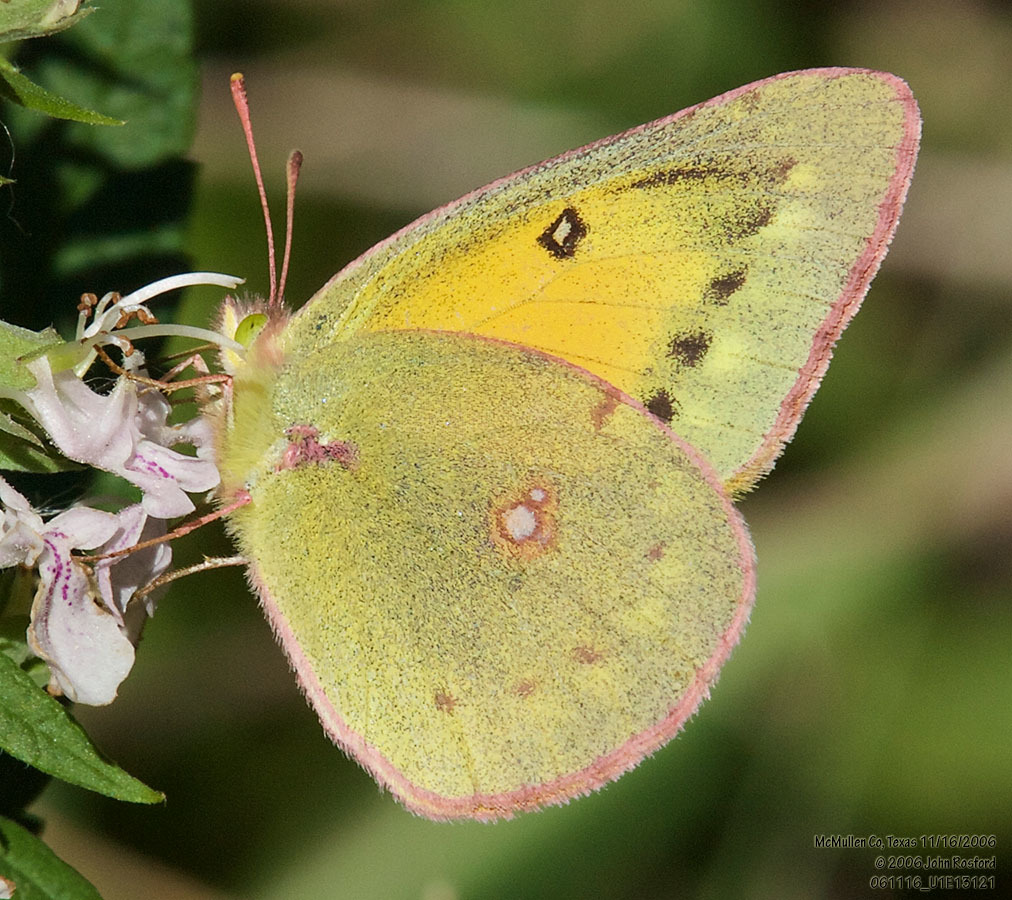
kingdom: Animalia
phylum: Arthropoda
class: Insecta
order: Lepidoptera
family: Pieridae
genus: Colias
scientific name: Colias eurytheme
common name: Alfalfa butterfly
